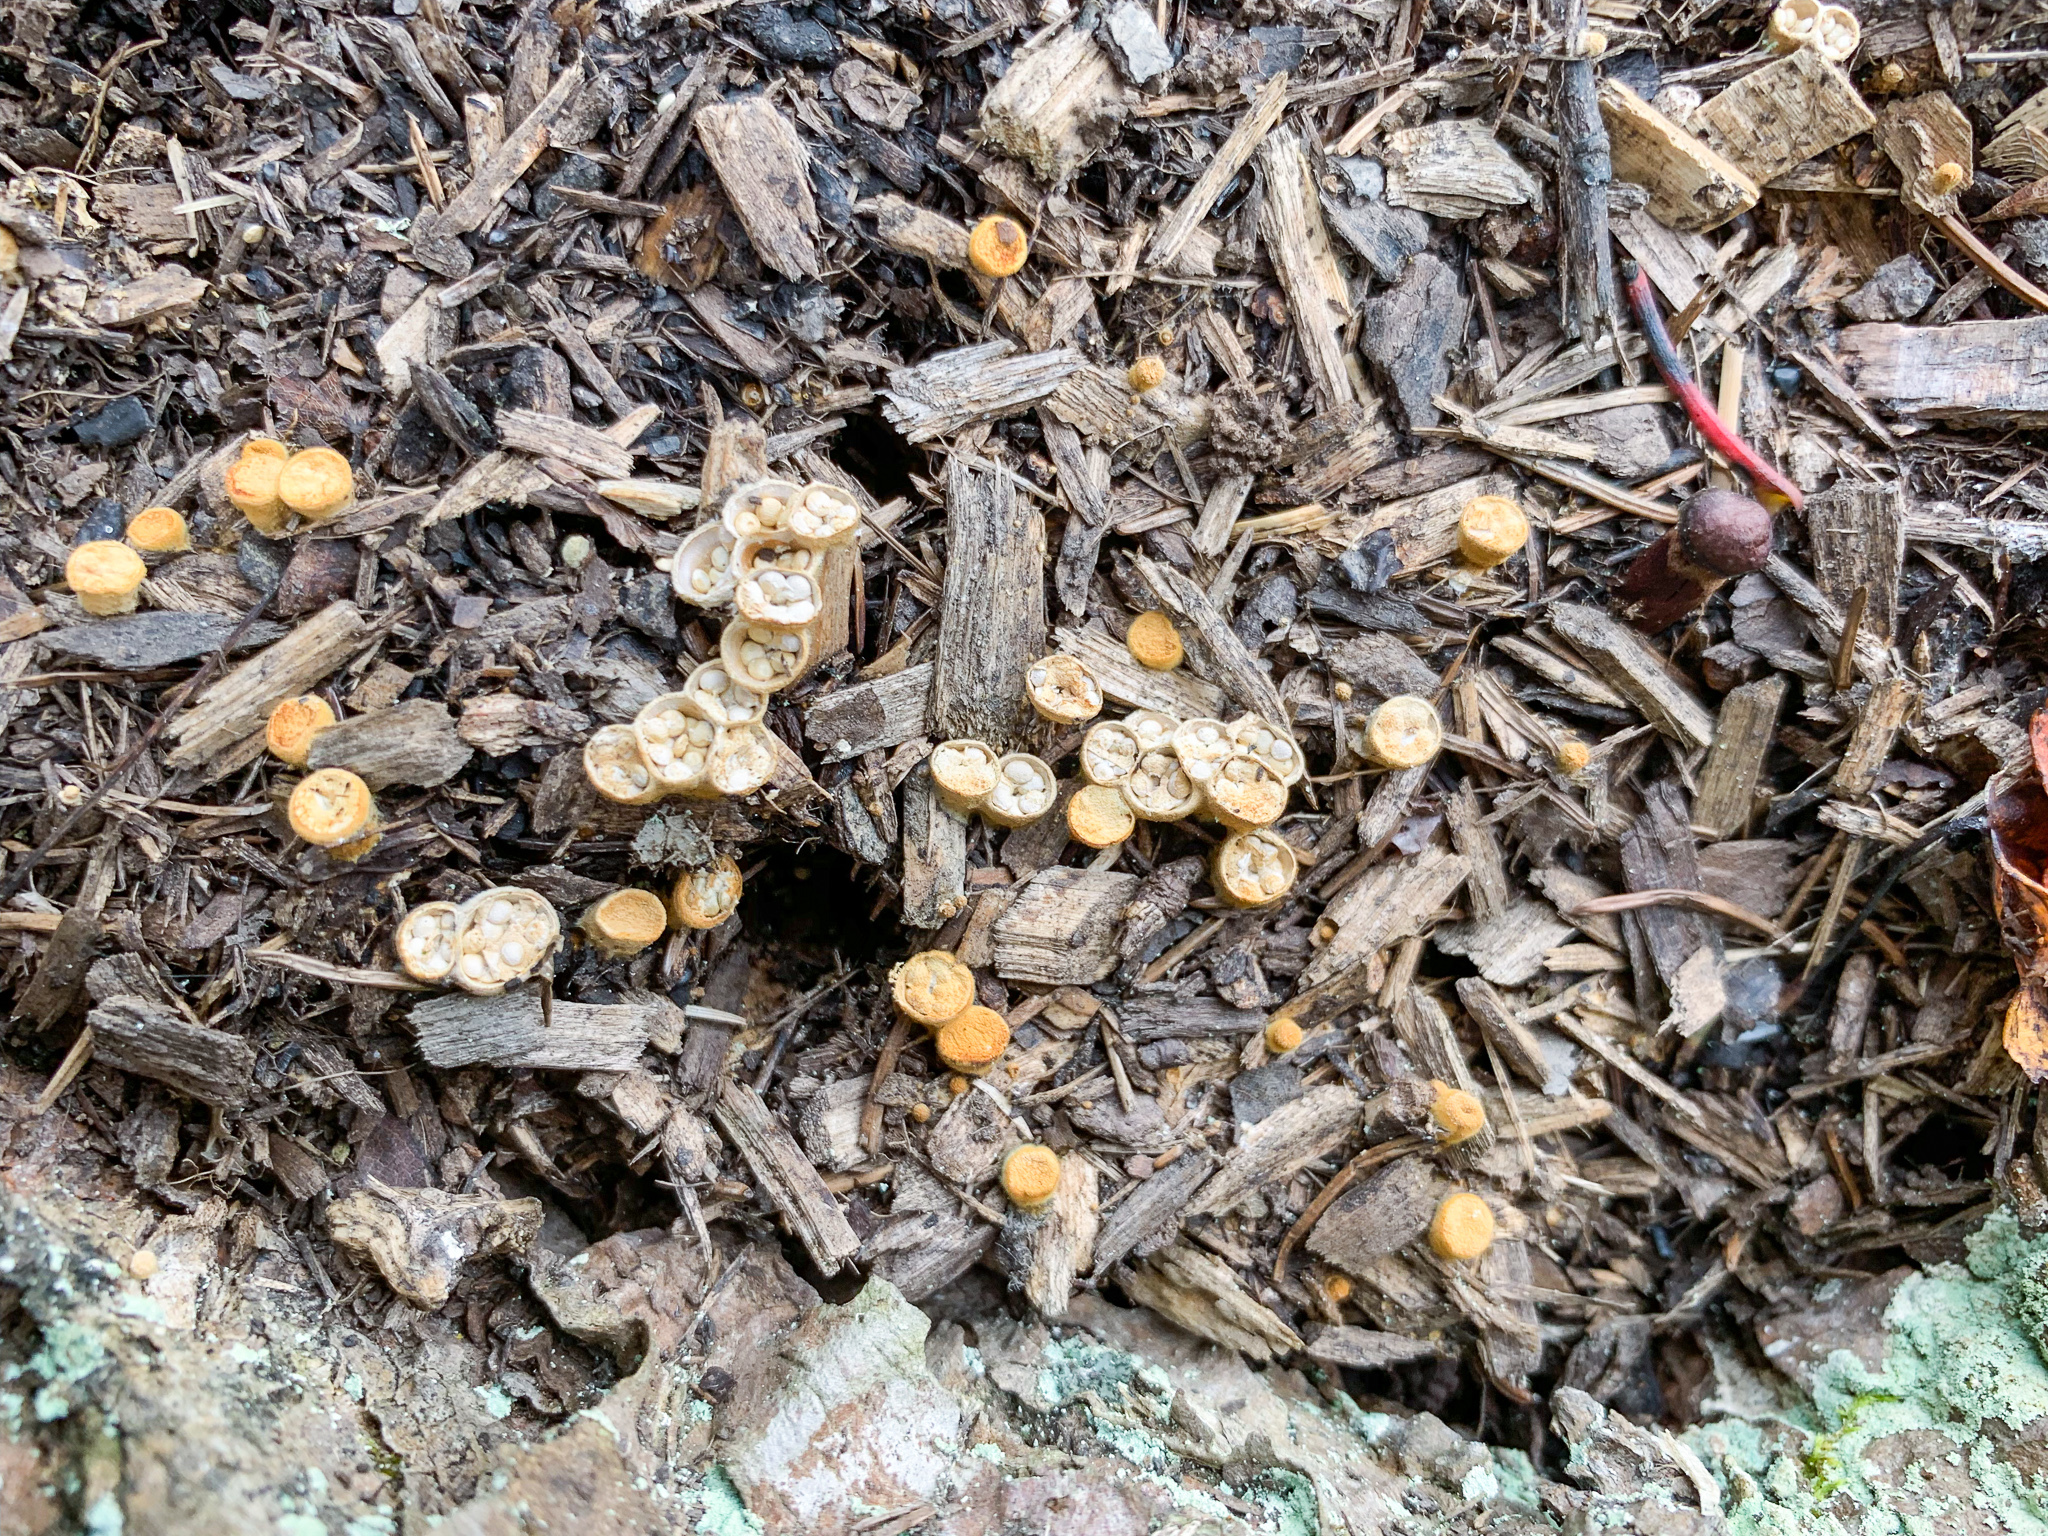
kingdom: Fungi
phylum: Basidiomycota
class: Agaricomycetes
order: Agaricales
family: Nidulariaceae
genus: Crucibulum
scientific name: Crucibulum laeve
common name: Common bird's nest
